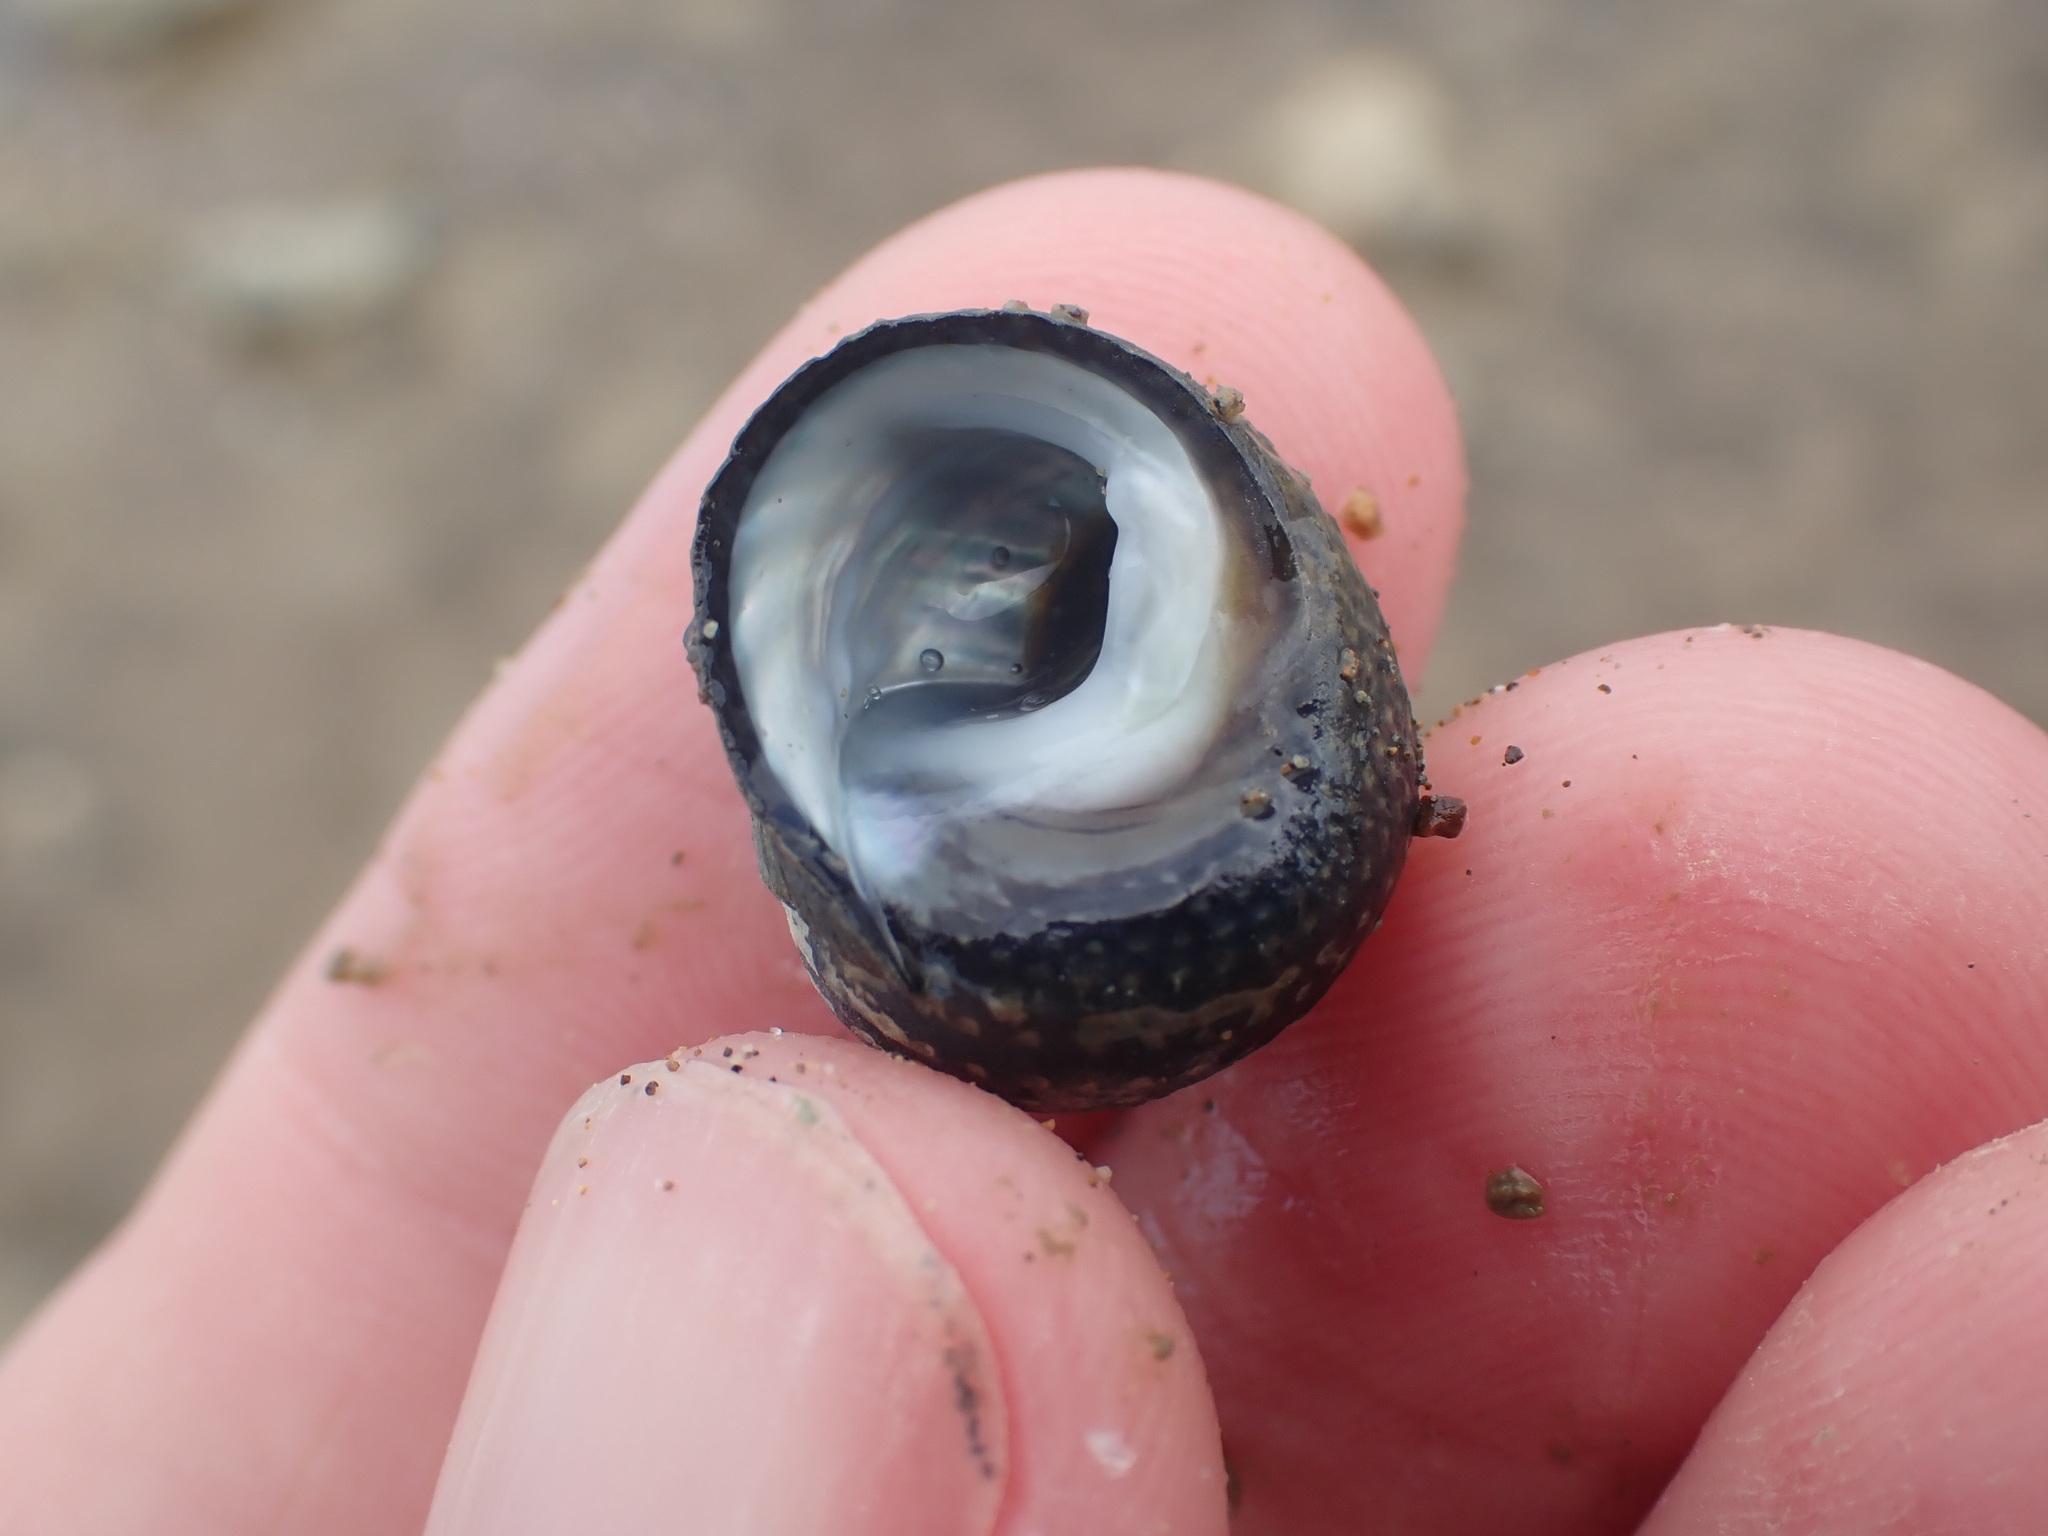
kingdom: Animalia
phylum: Mollusca
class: Gastropoda
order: Trochida
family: Trochidae
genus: Diloma
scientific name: Diloma aethiops
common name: Scorched monodont
